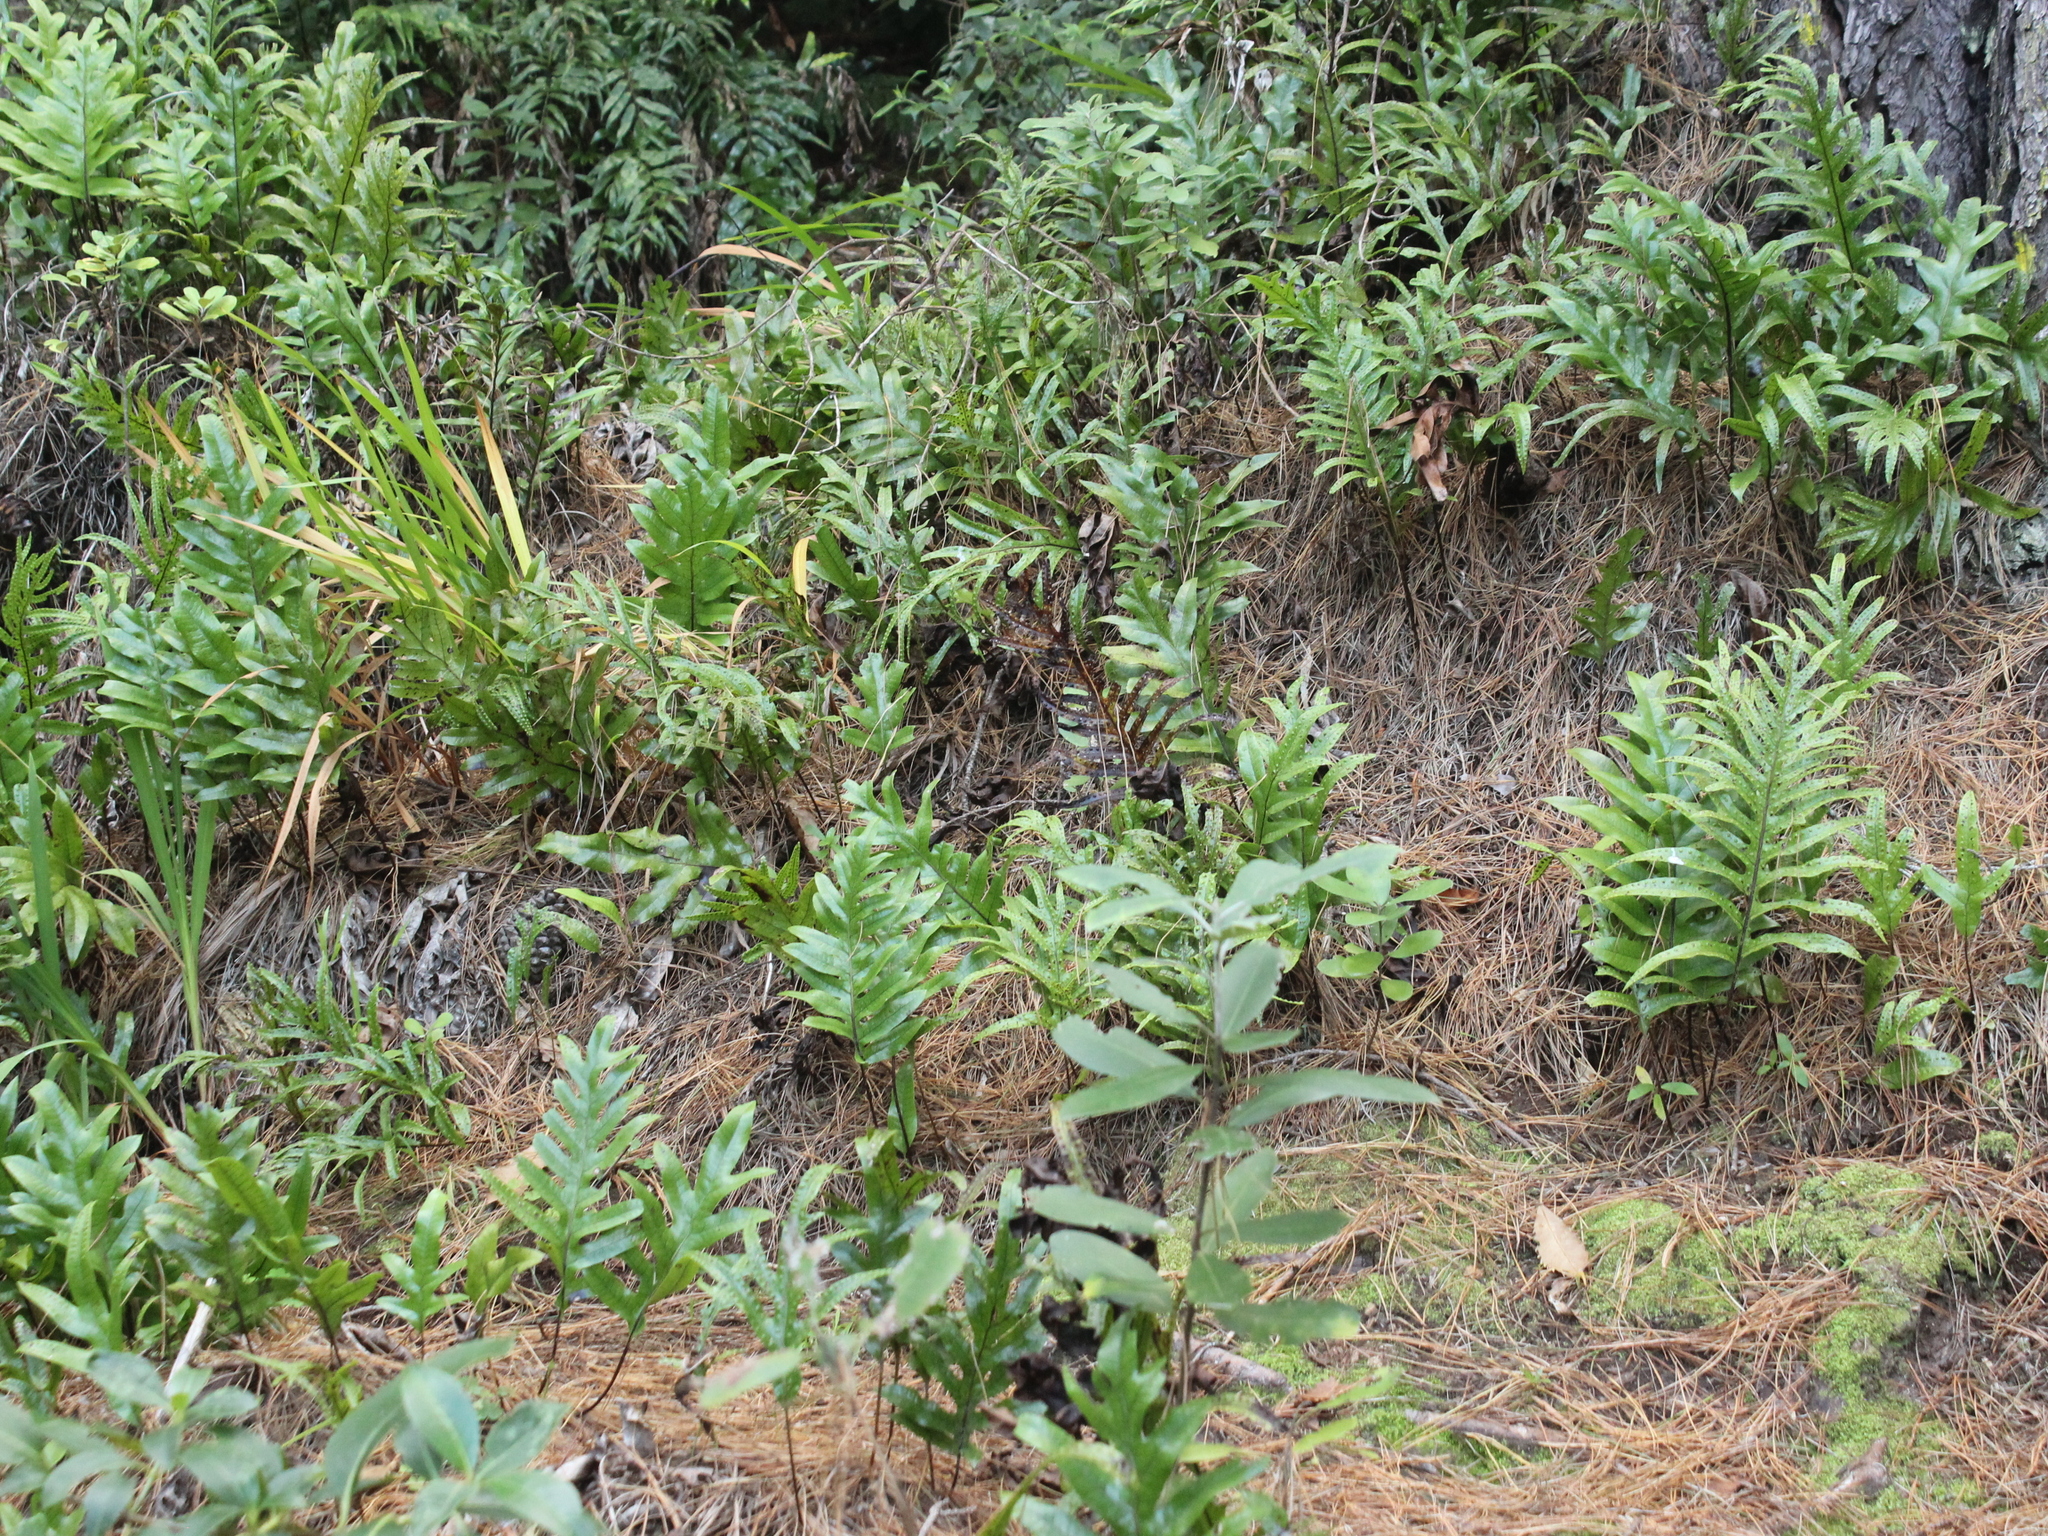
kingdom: Plantae
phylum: Tracheophyta
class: Polypodiopsida
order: Polypodiales
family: Polypodiaceae
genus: Lecanopteris
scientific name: Lecanopteris pustulata
